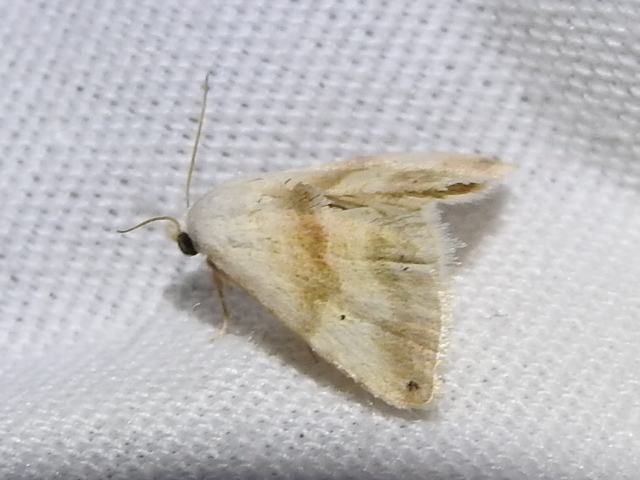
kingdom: Animalia
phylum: Arthropoda
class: Insecta
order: Lepidoptera
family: Noctuidae
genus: Eublemma
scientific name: Eublemma minima
